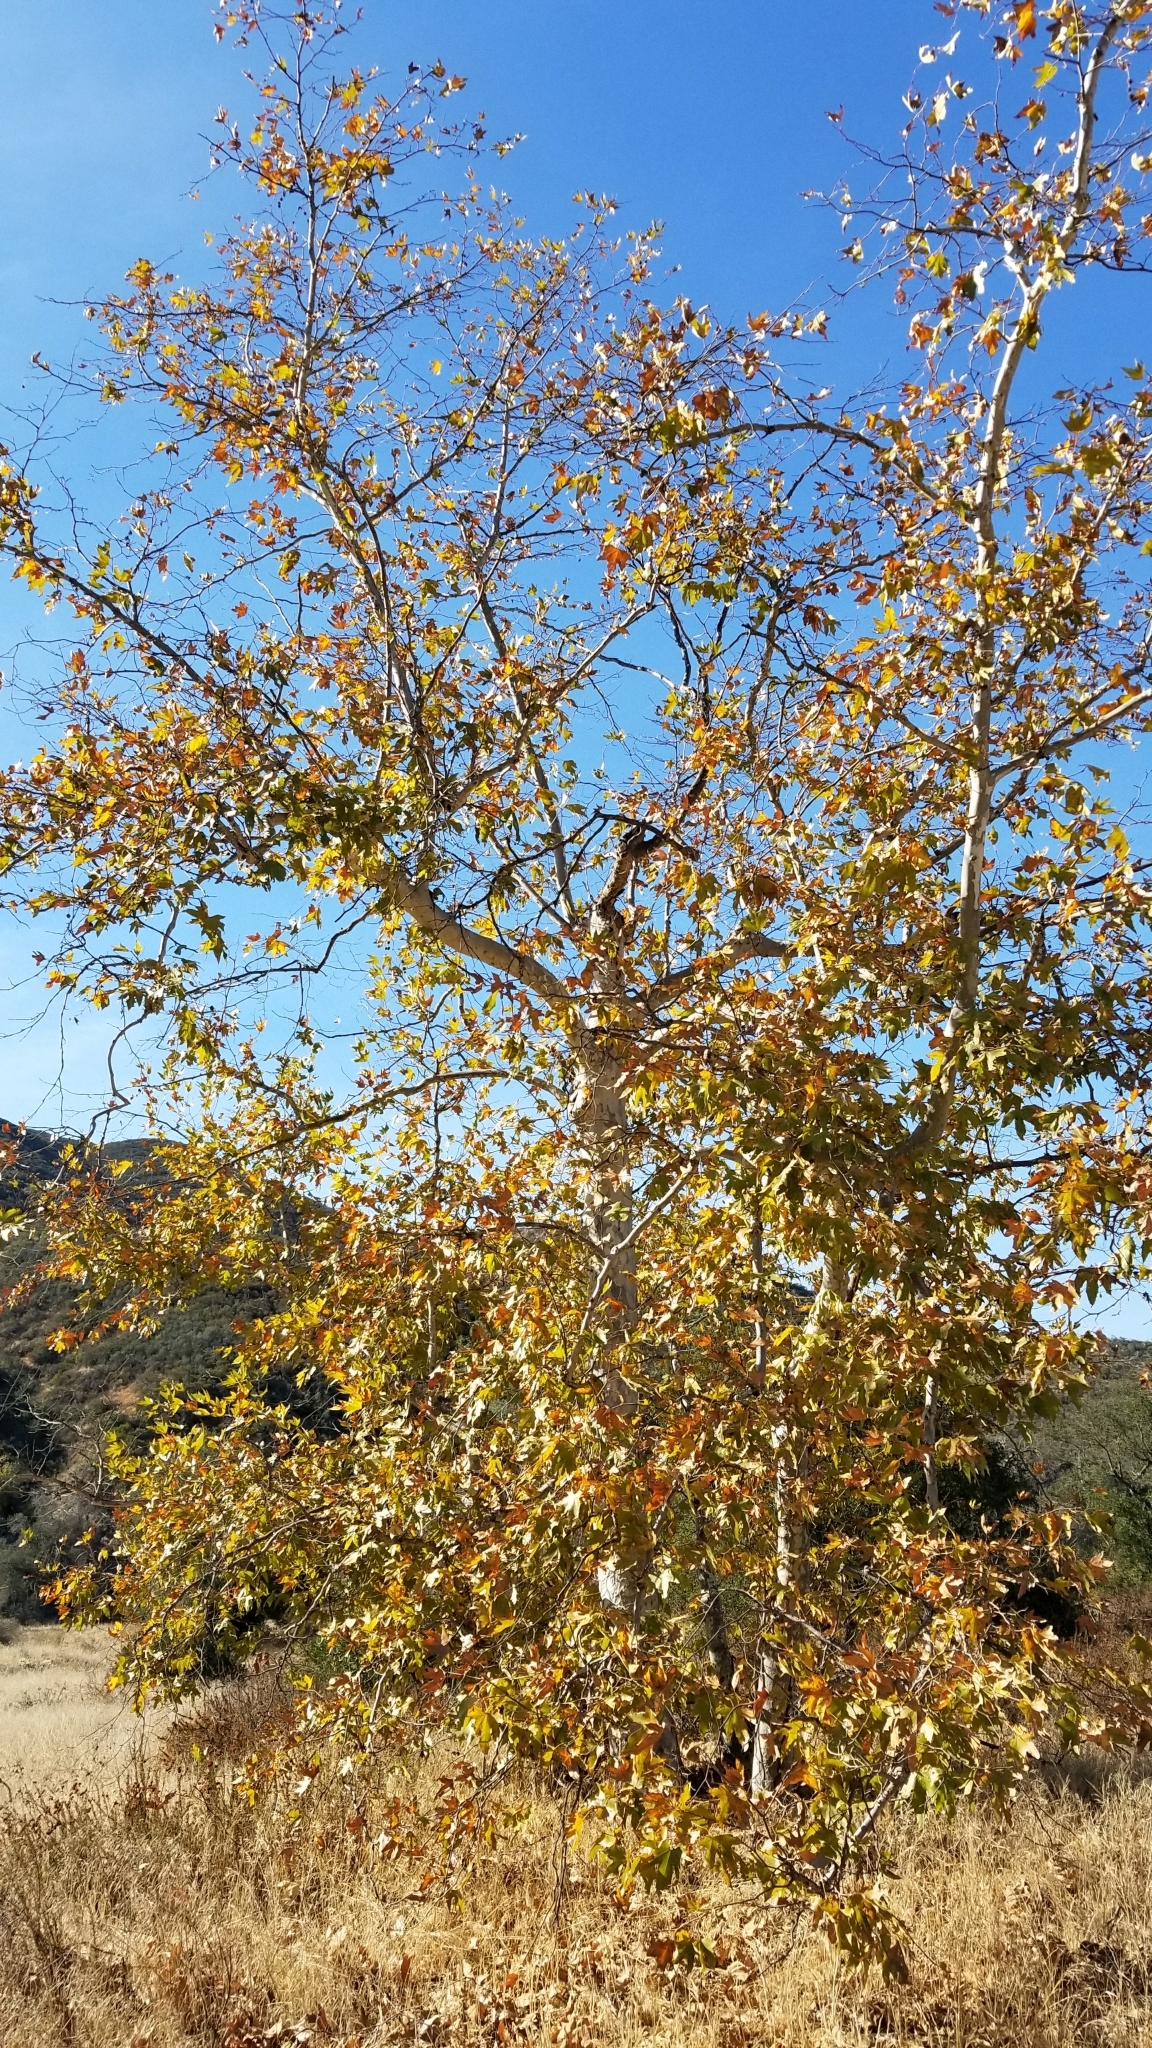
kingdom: Plantae
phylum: Tracheophyta
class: Magnoliopsida
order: Proteales
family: Platanaceae
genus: Platanus
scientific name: Platanus racemosa
